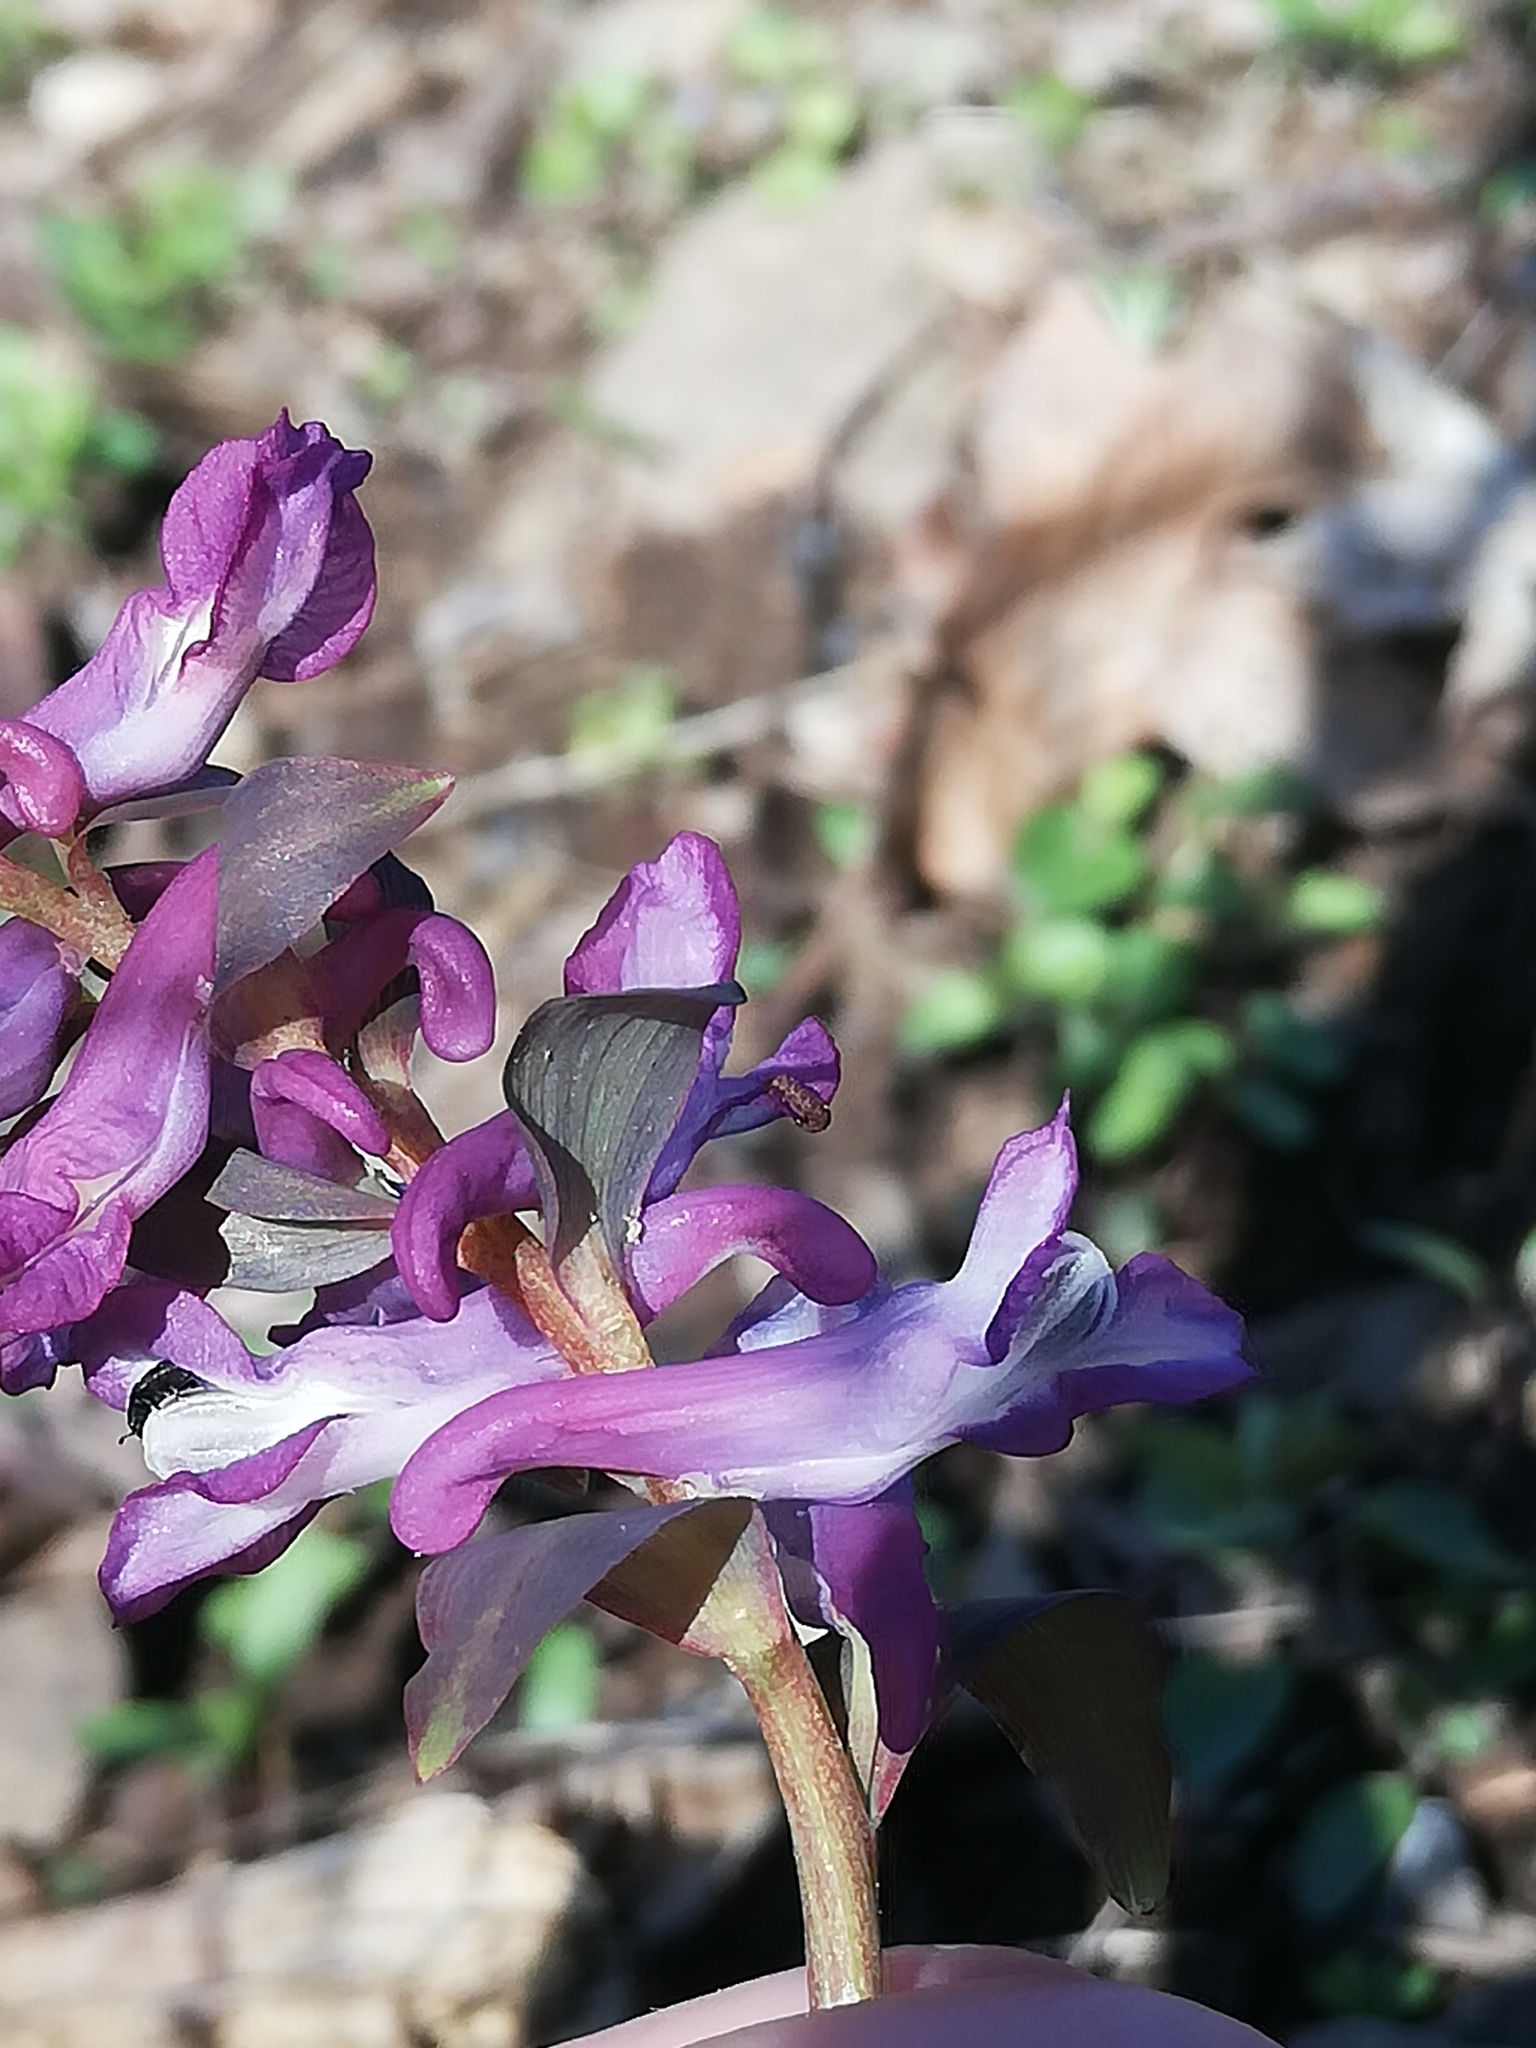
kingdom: Plantae
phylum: Tracheophyta
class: Magnoliopsida
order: Ranunculales
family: Papaveraceae
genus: Corydalis
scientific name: Corydalis cava
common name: Hollowroot
